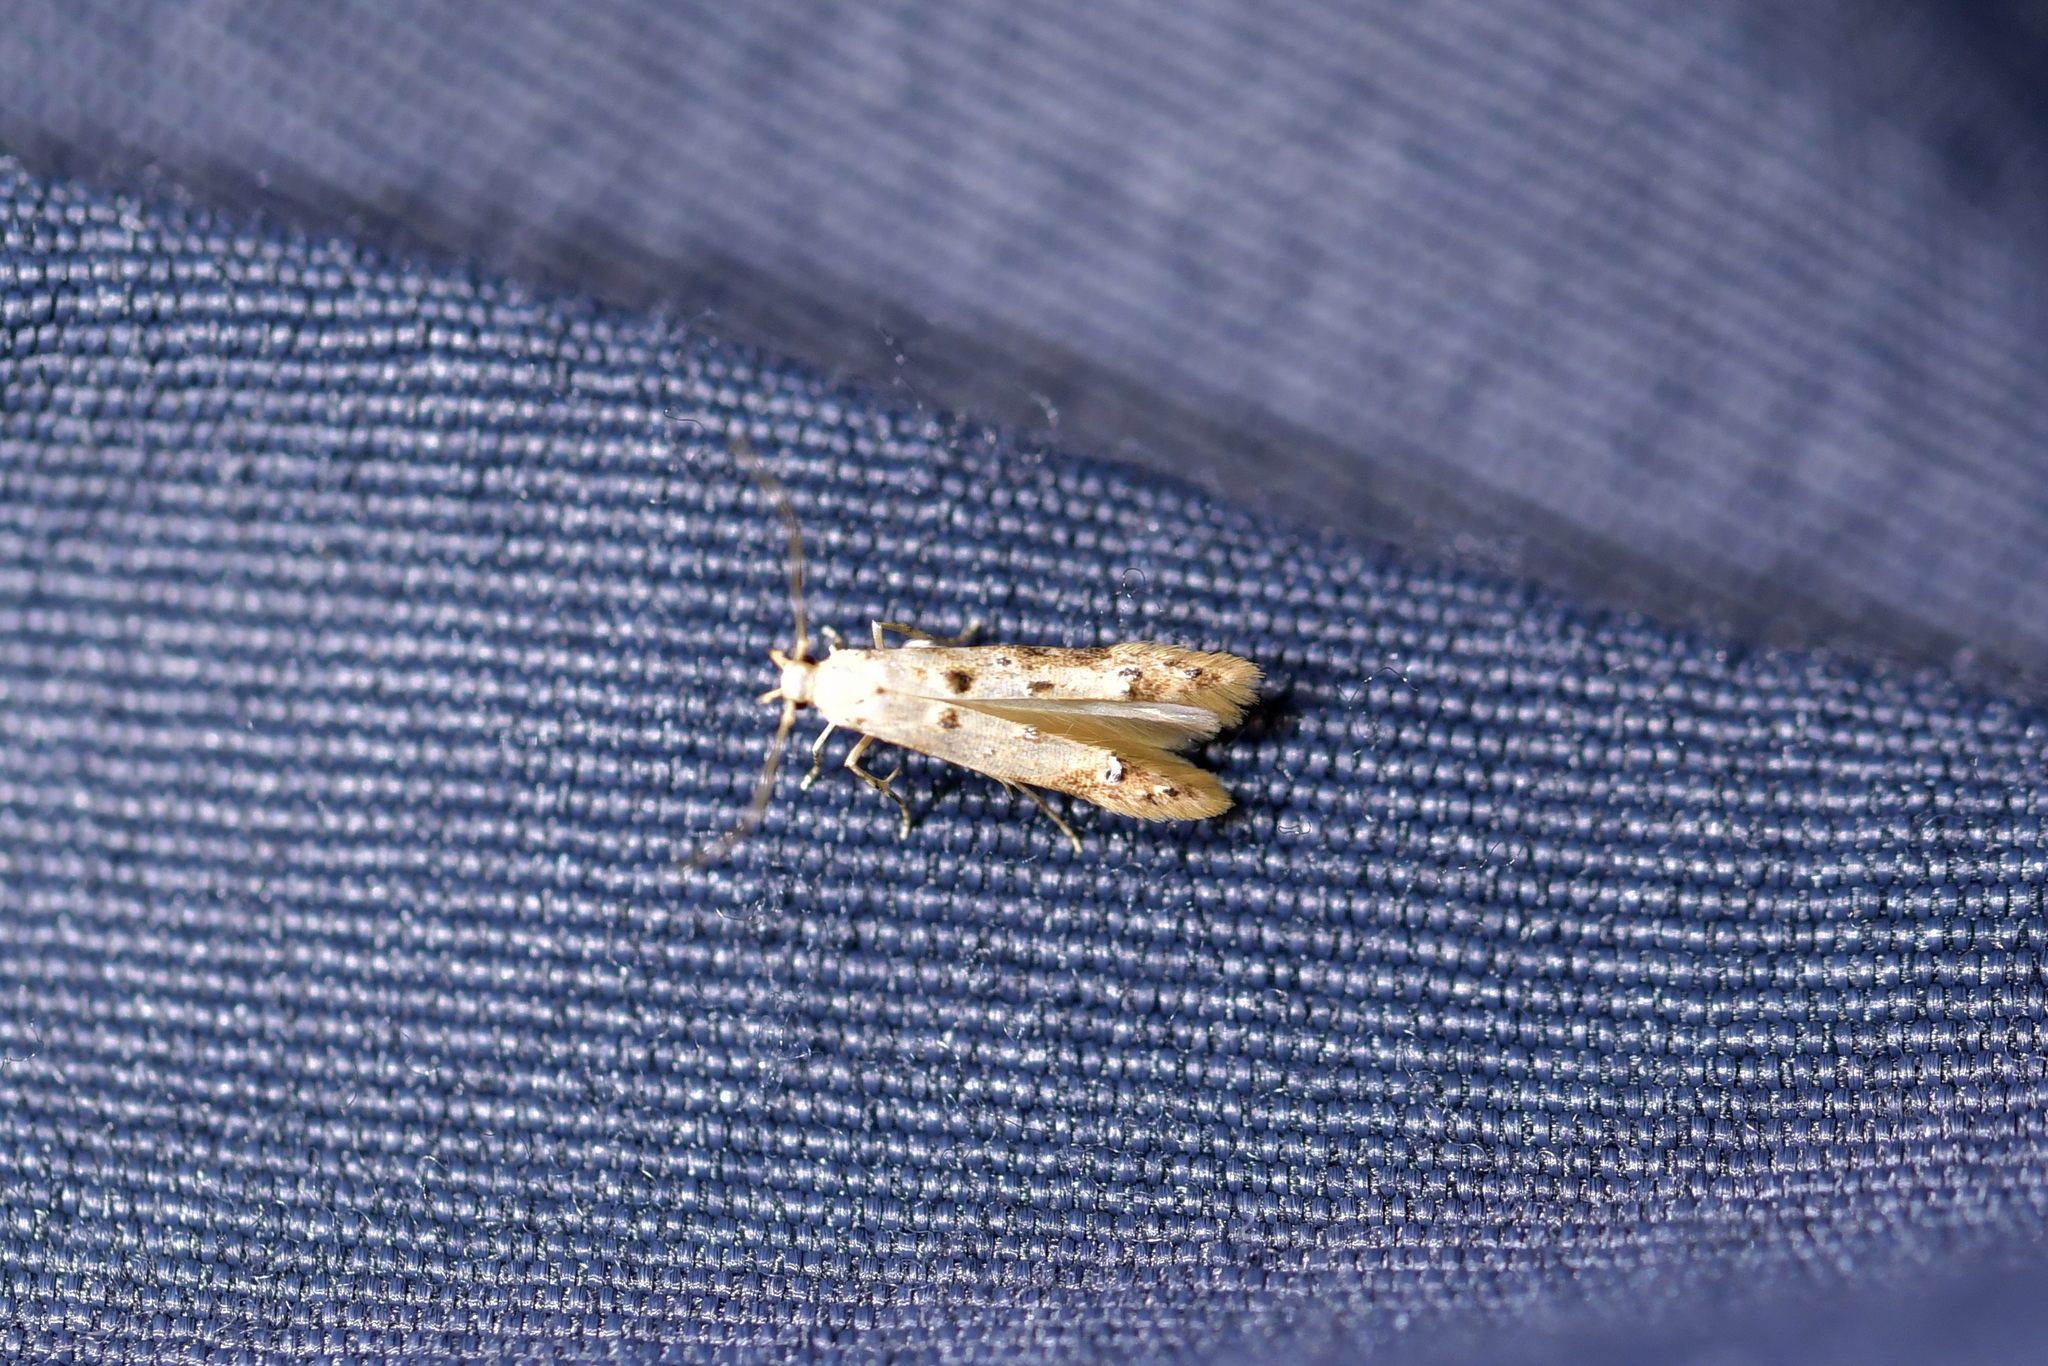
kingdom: Animalia
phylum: Arthropoda
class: Insecta
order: Lepidoptera
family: Elachistidae
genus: Microcolona
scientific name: Microcolona limodes
